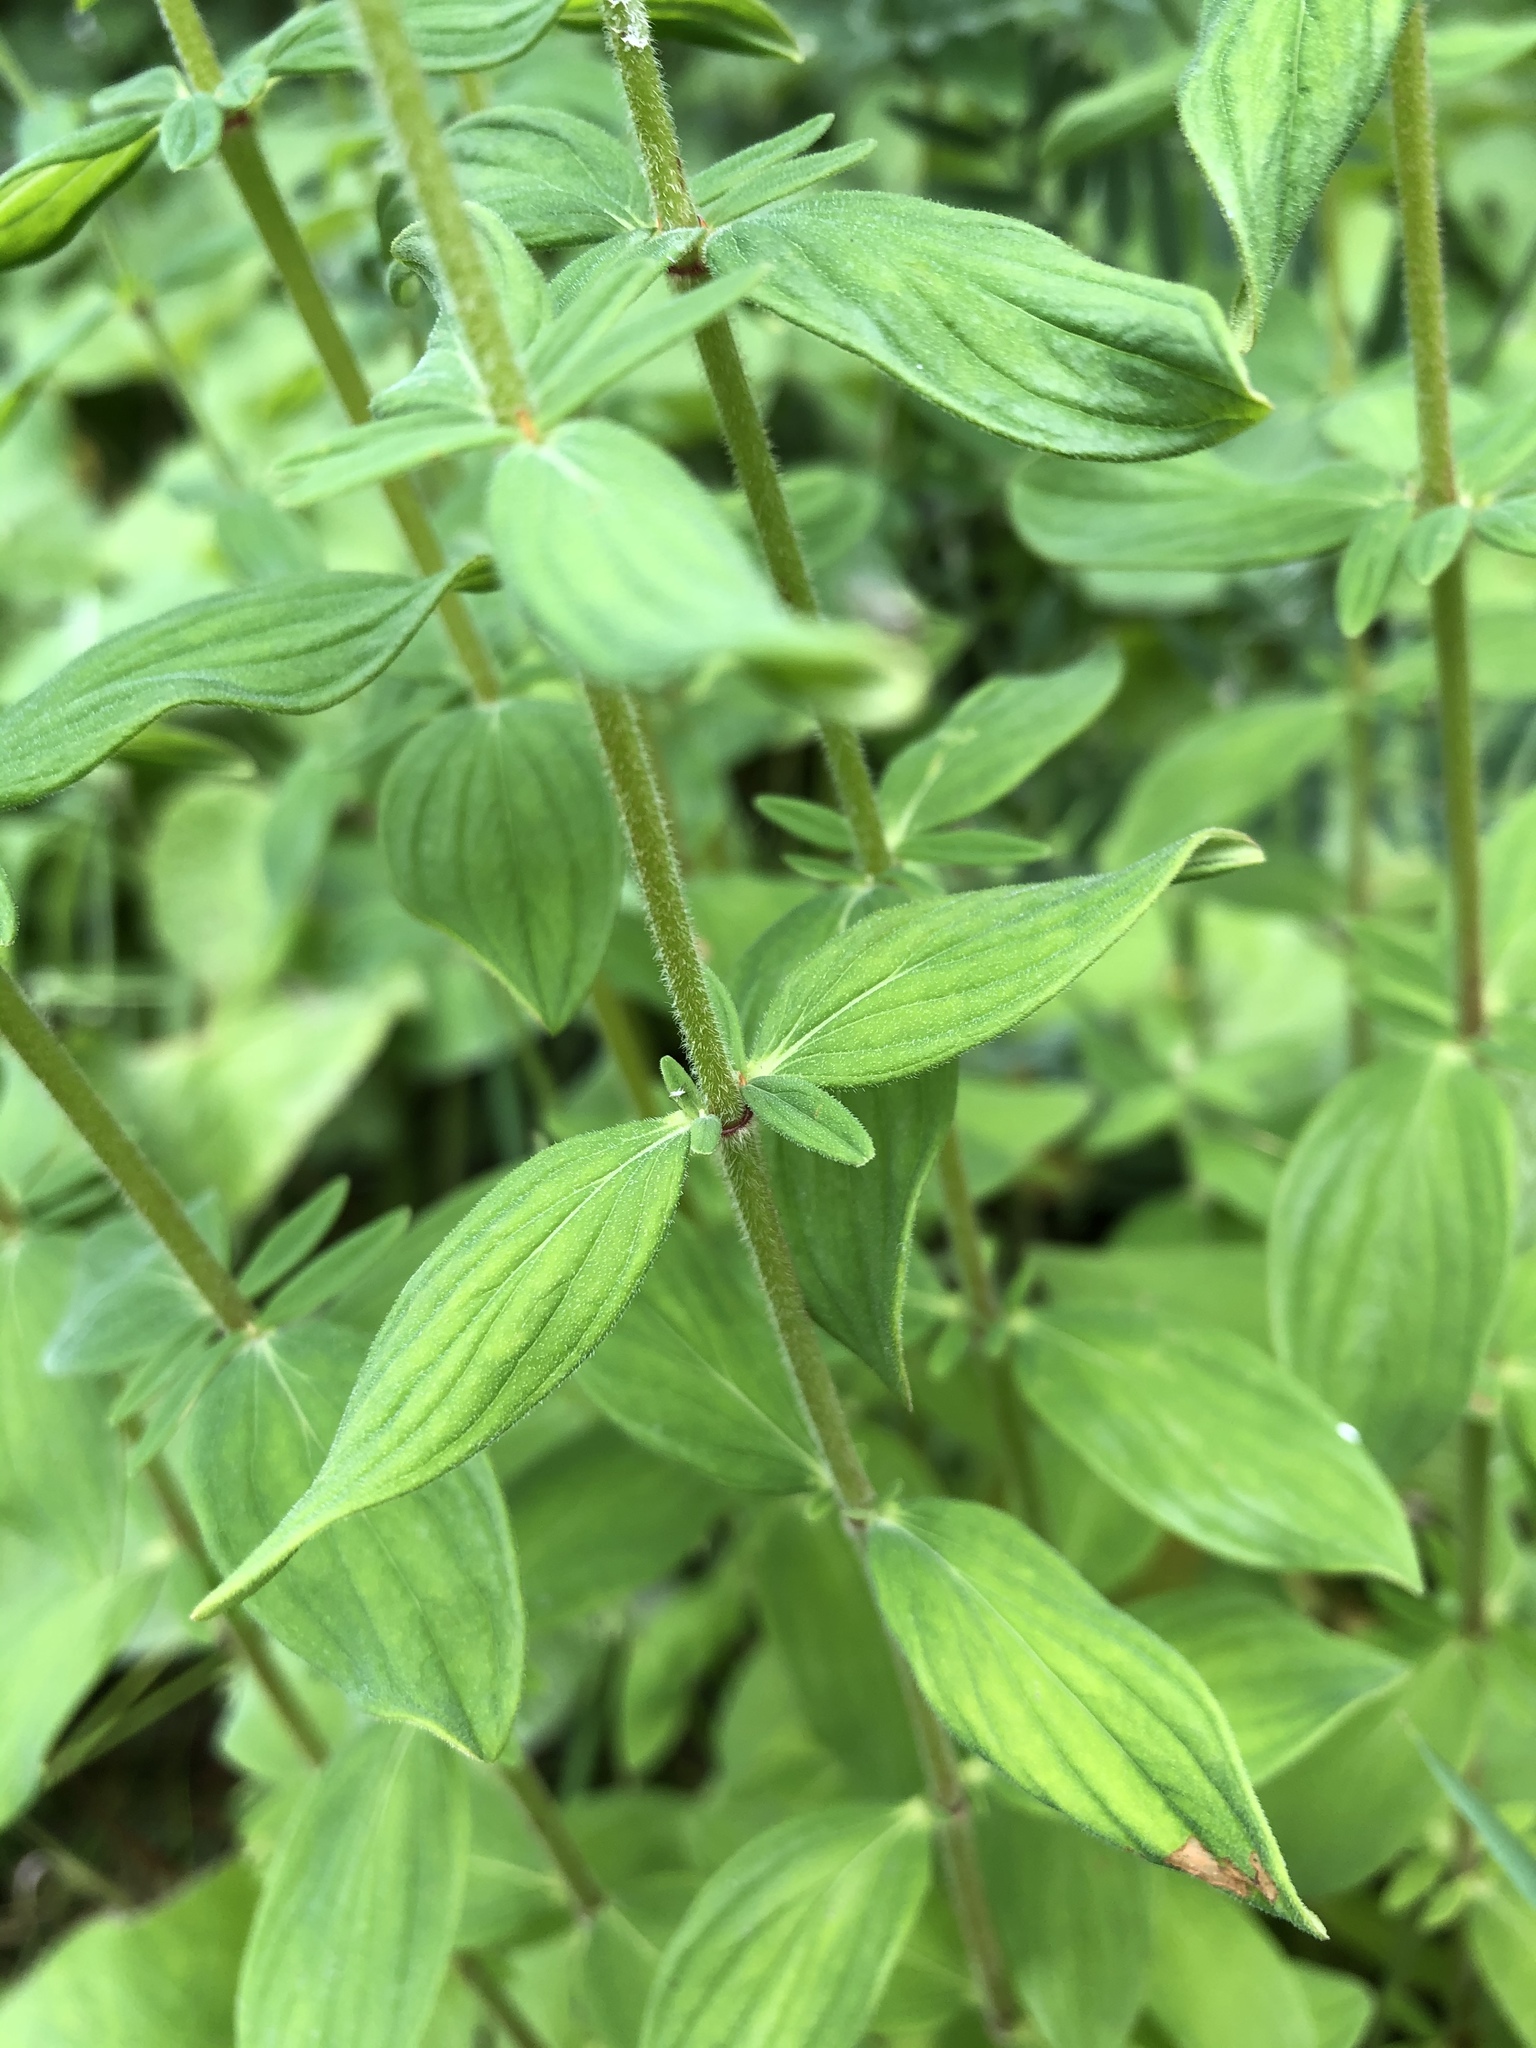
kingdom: Plantae
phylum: Tracheophyta
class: Magnoliopsida
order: Malpighiales
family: Hypericaceae
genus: Hypericum
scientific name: Hypericum hirsutum
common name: Hairy st. john's-wort
